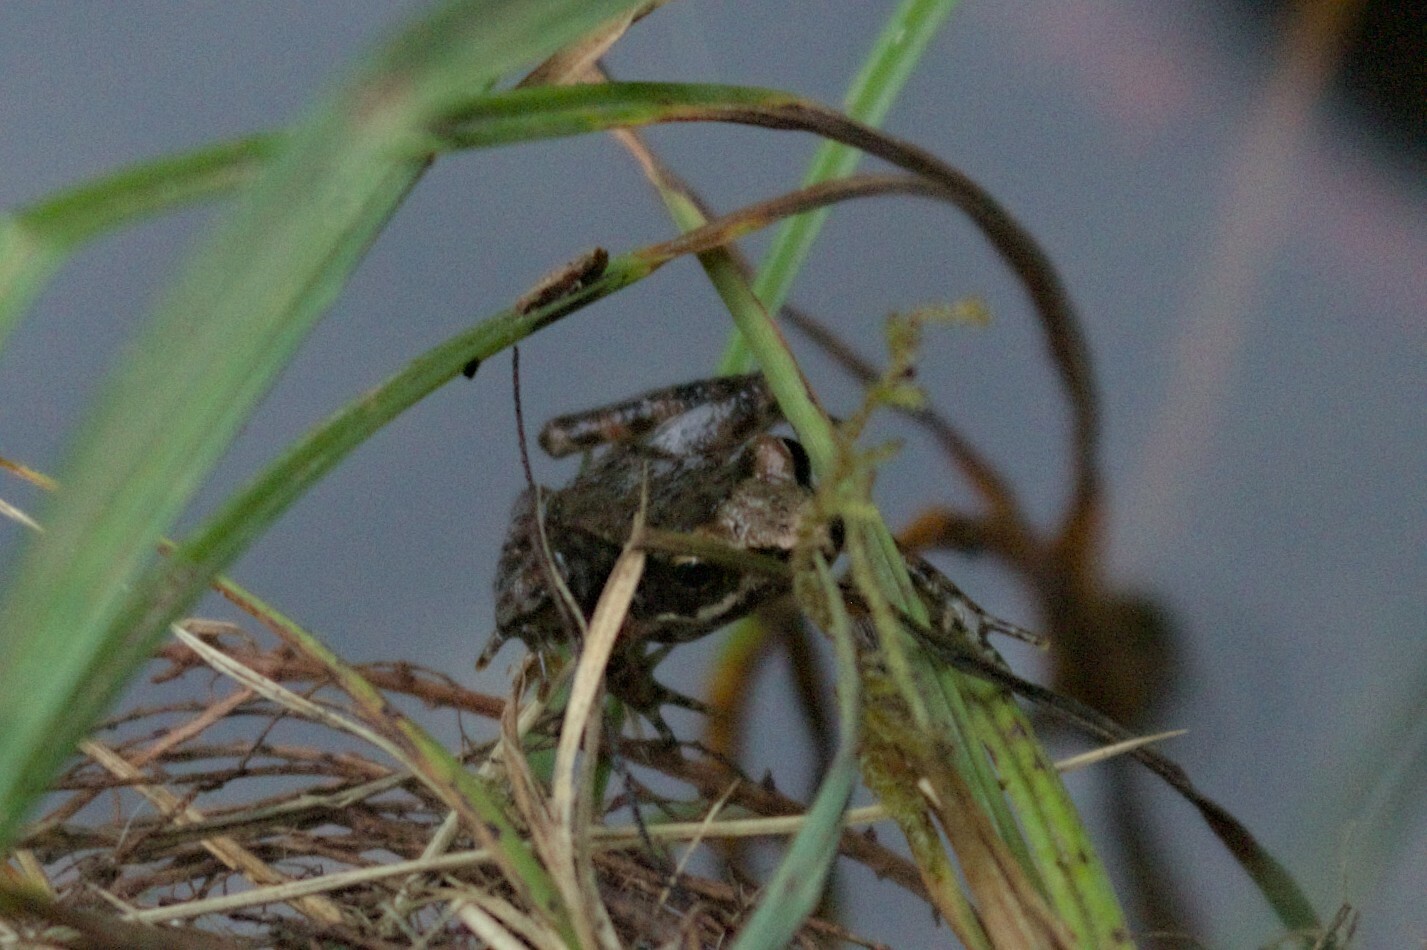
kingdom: Animalia
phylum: Chordata
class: Amphibia
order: Anura
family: Ranidae
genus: Rana
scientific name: Rana iberica
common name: Iberian frog
